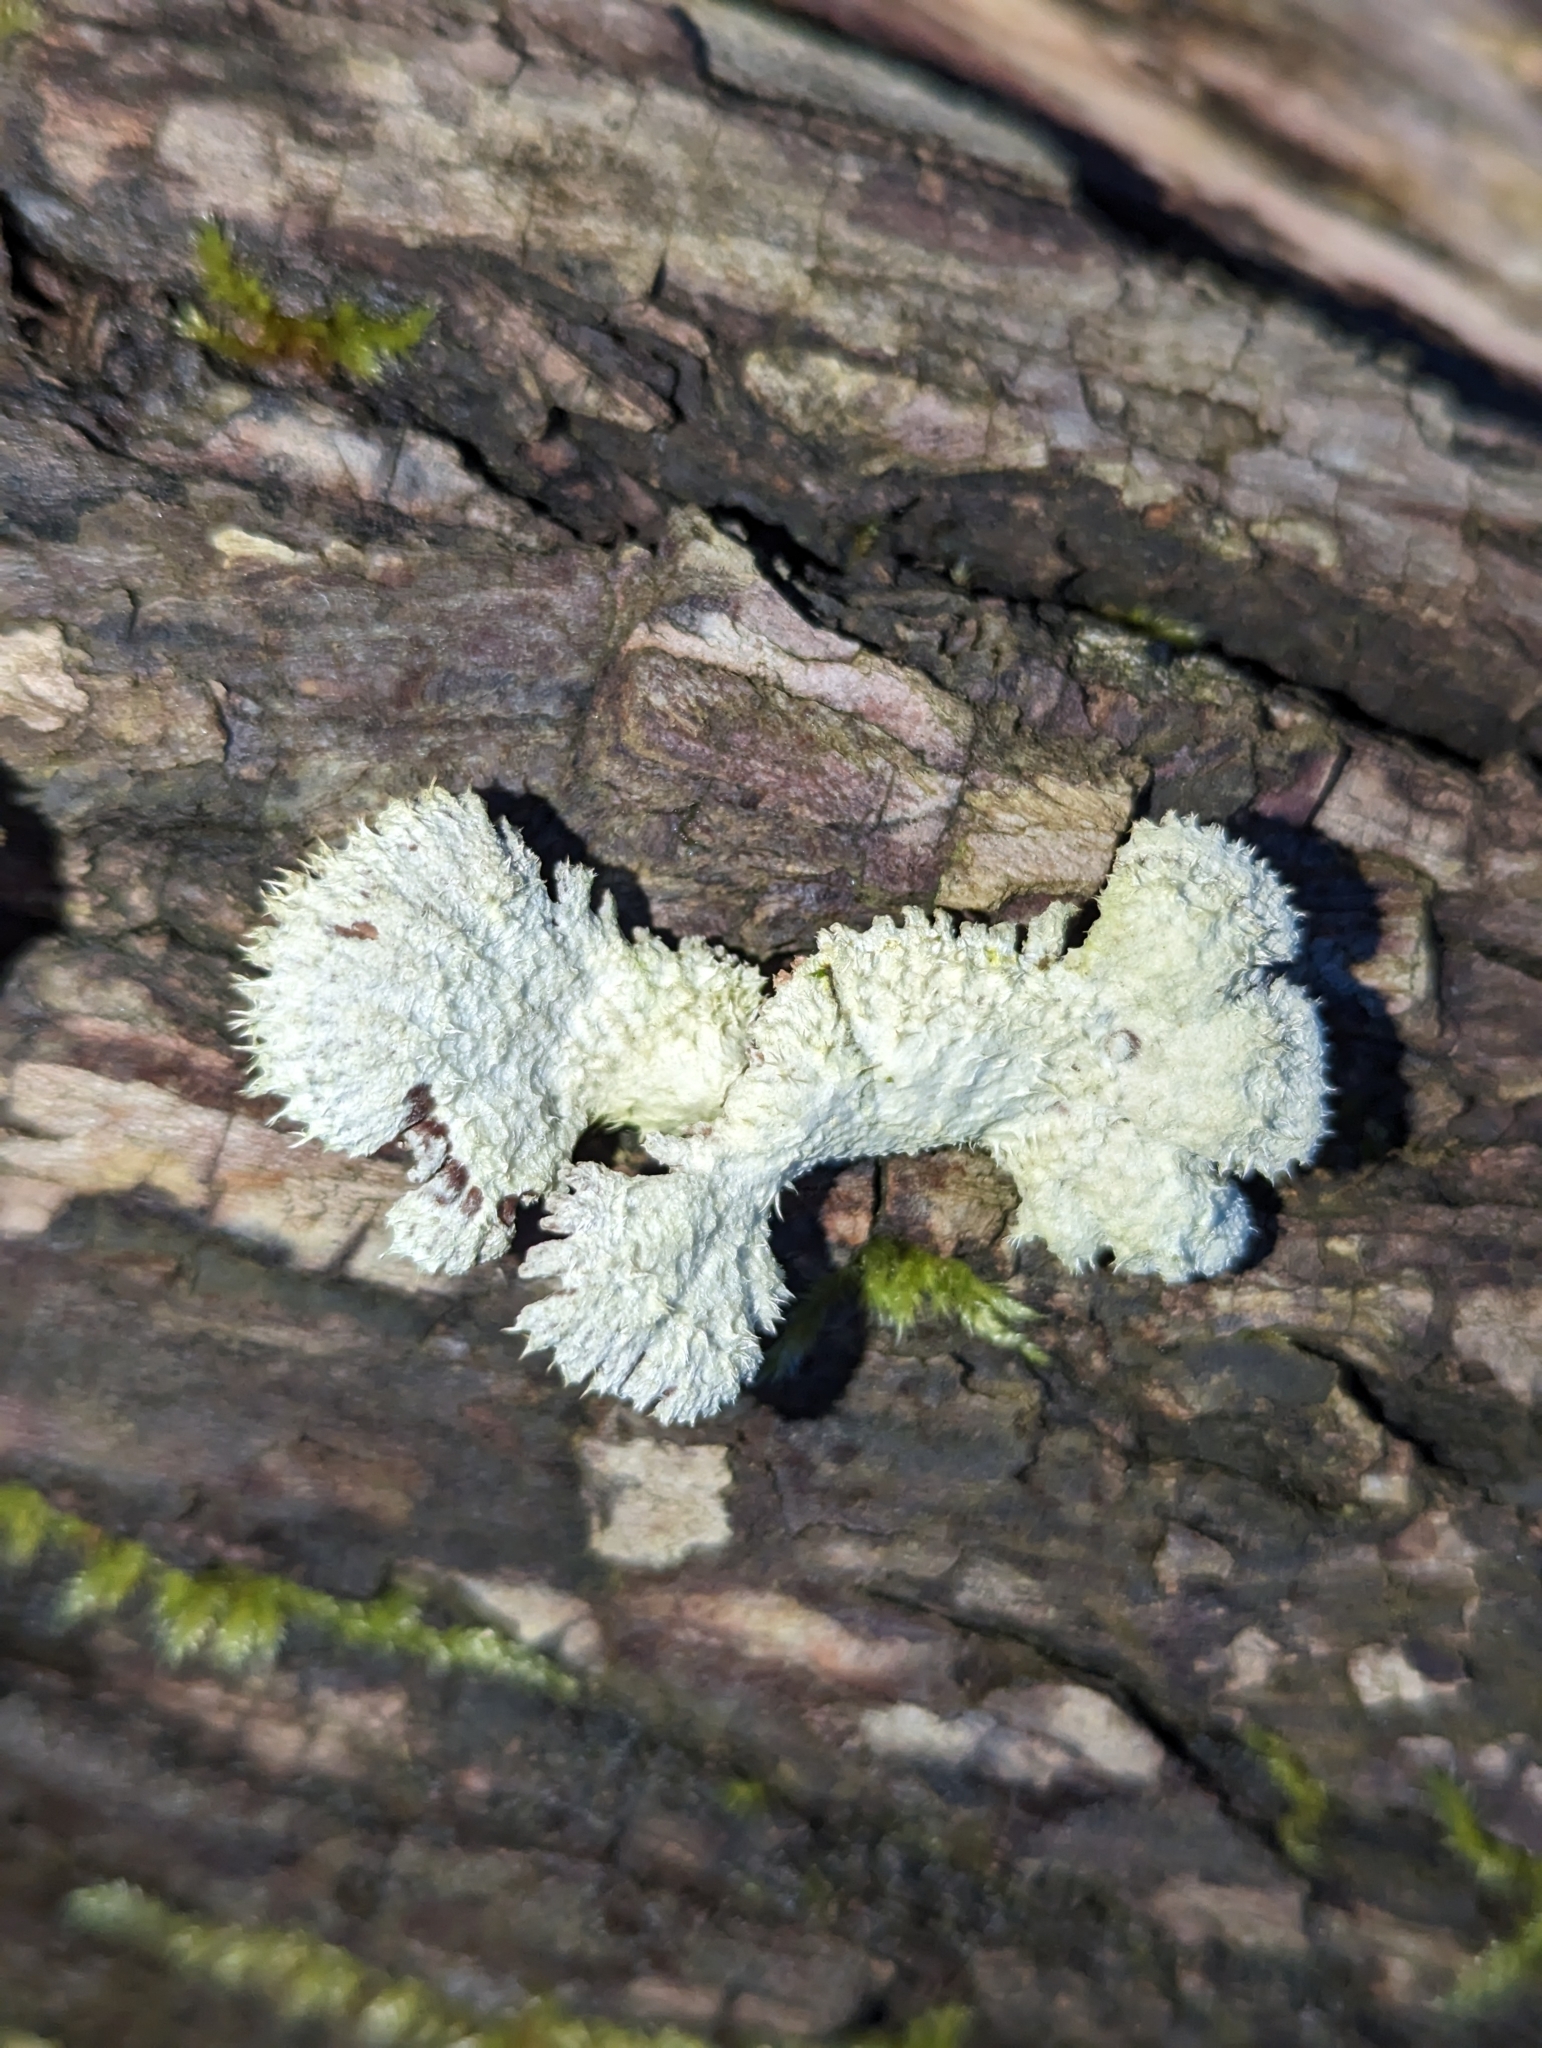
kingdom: Fungi
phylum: Basidiomycota
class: Agaricomycetes
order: Agaricales
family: Schizophyllaceae
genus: Schizophyllum
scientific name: Schizophyllum commune
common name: Common porecrust
